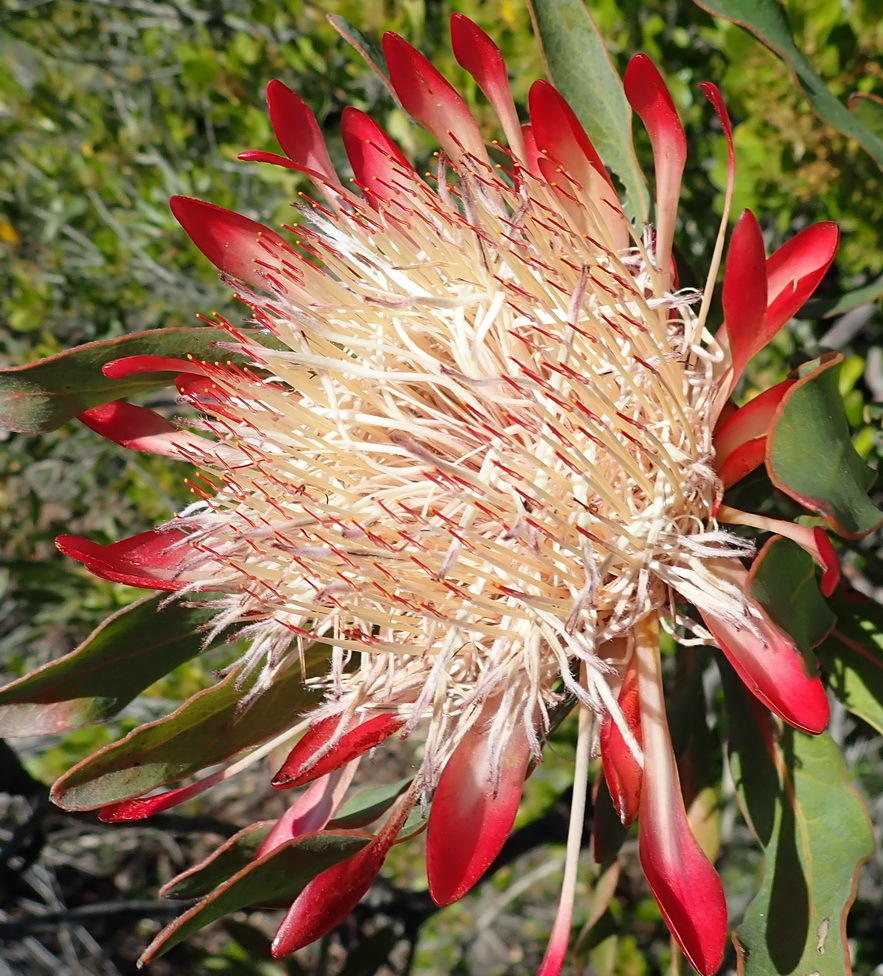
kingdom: Plantae
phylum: Tracheophyta
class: Magnoliopsida
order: Proteales
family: Proteaceae
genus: Protea
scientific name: Protea susannae
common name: Foetid-leaf sugarbush
